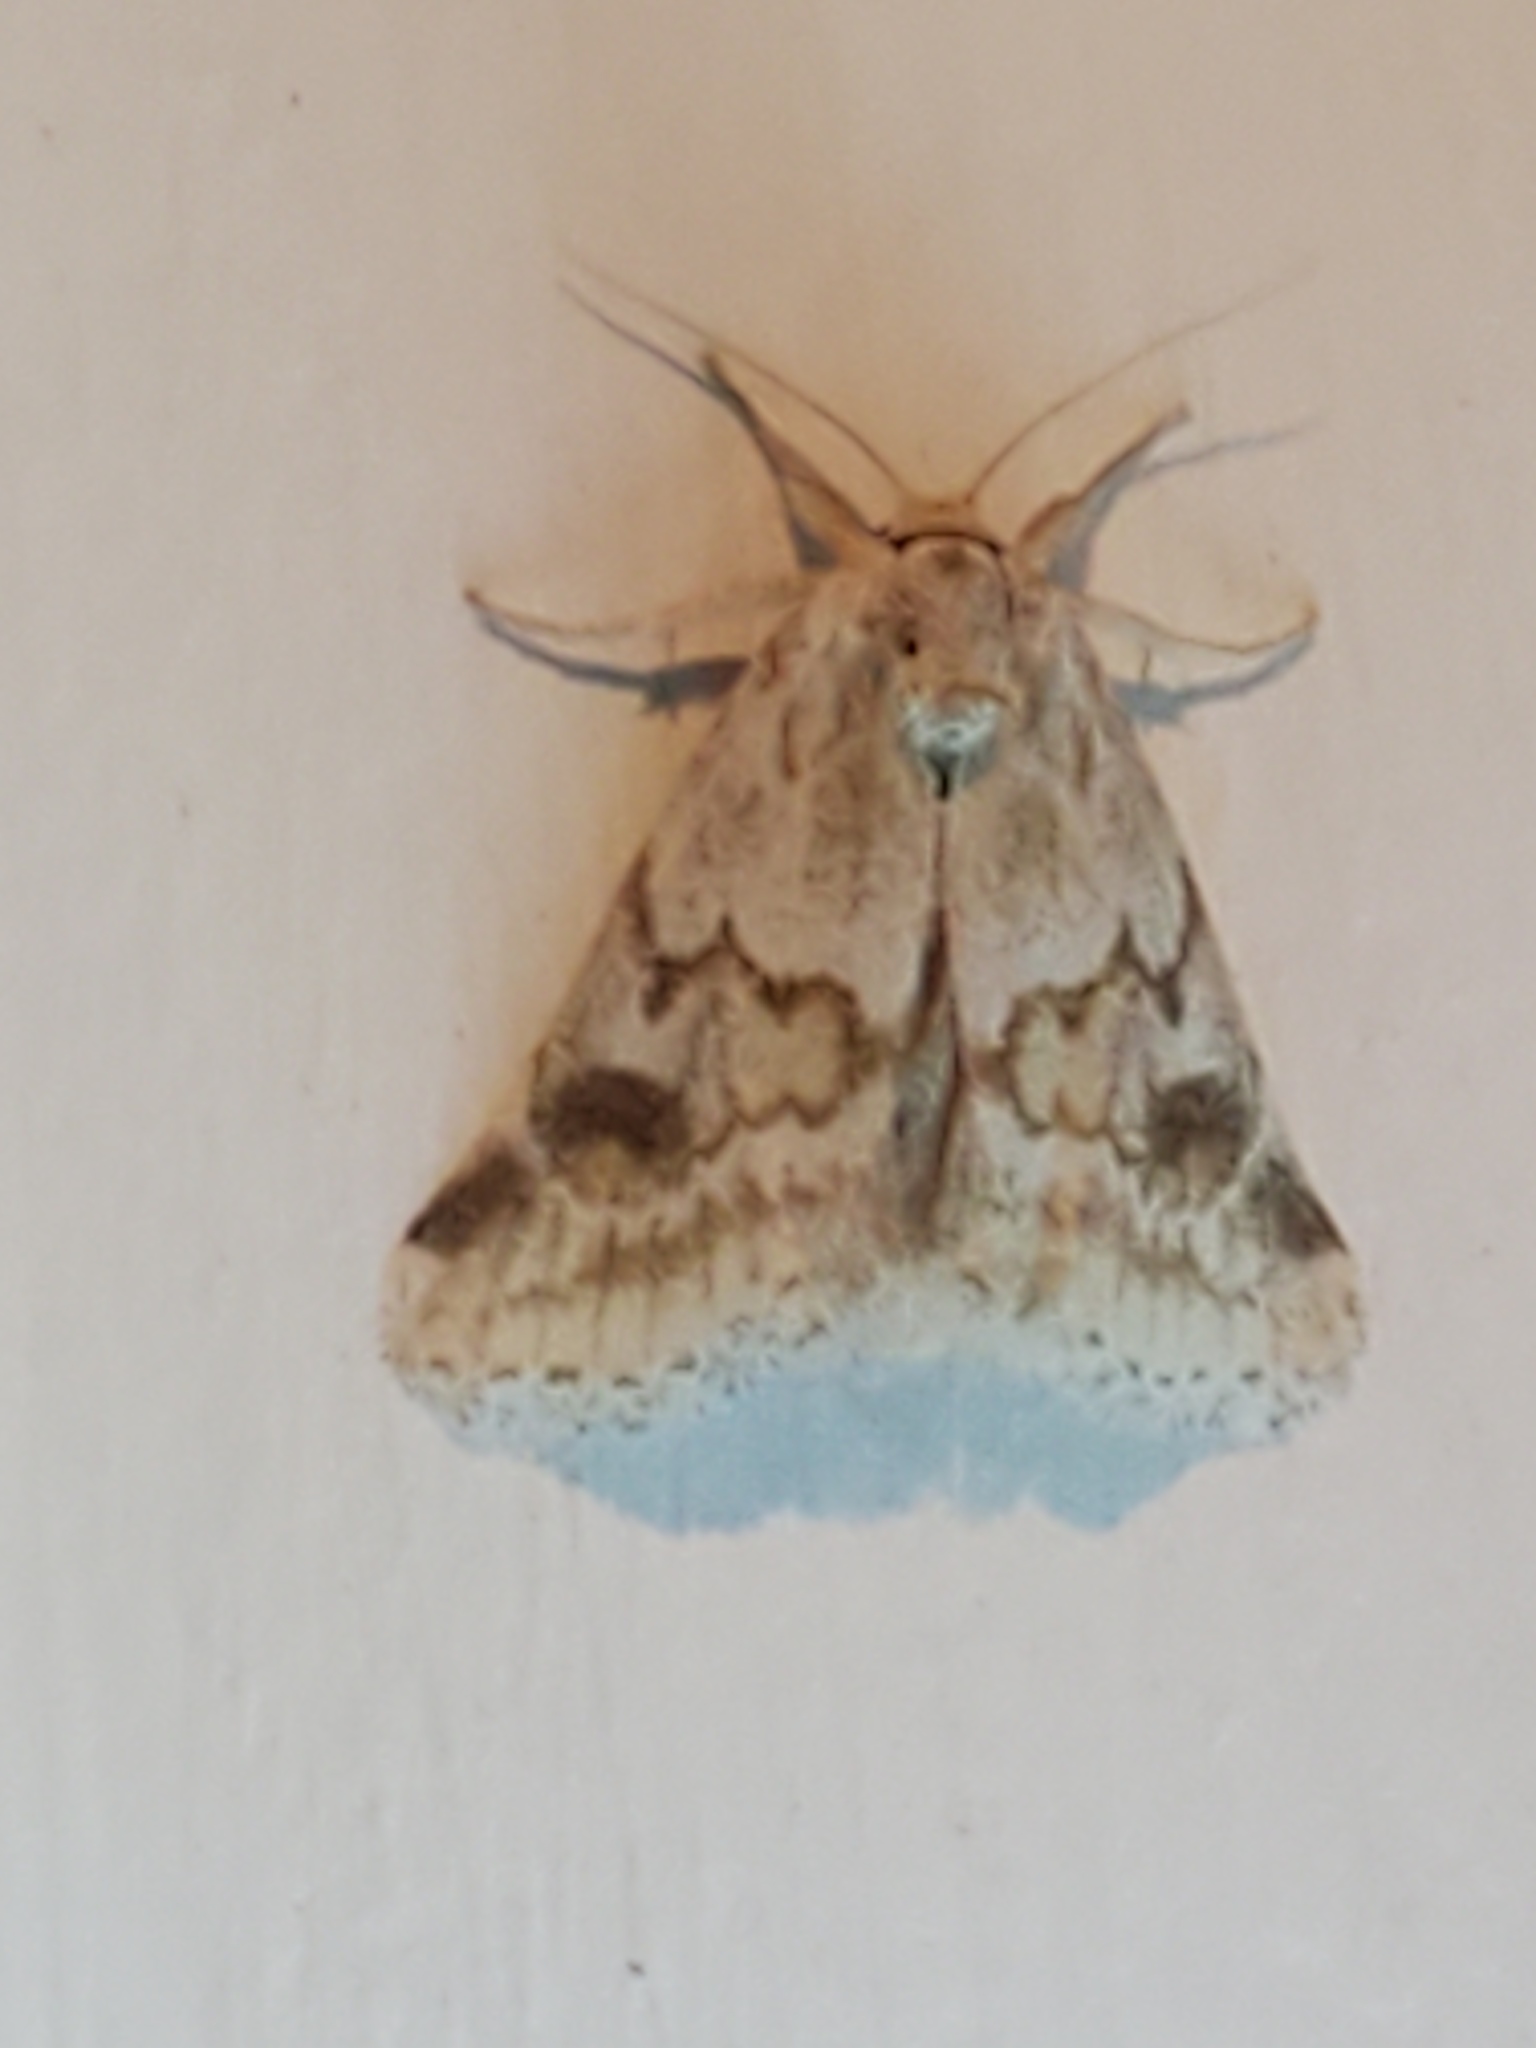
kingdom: Animalia
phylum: Arthropoda
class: Insecta
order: Lepidoptera
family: Noctuidae
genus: Acopa
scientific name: Acopa carina
